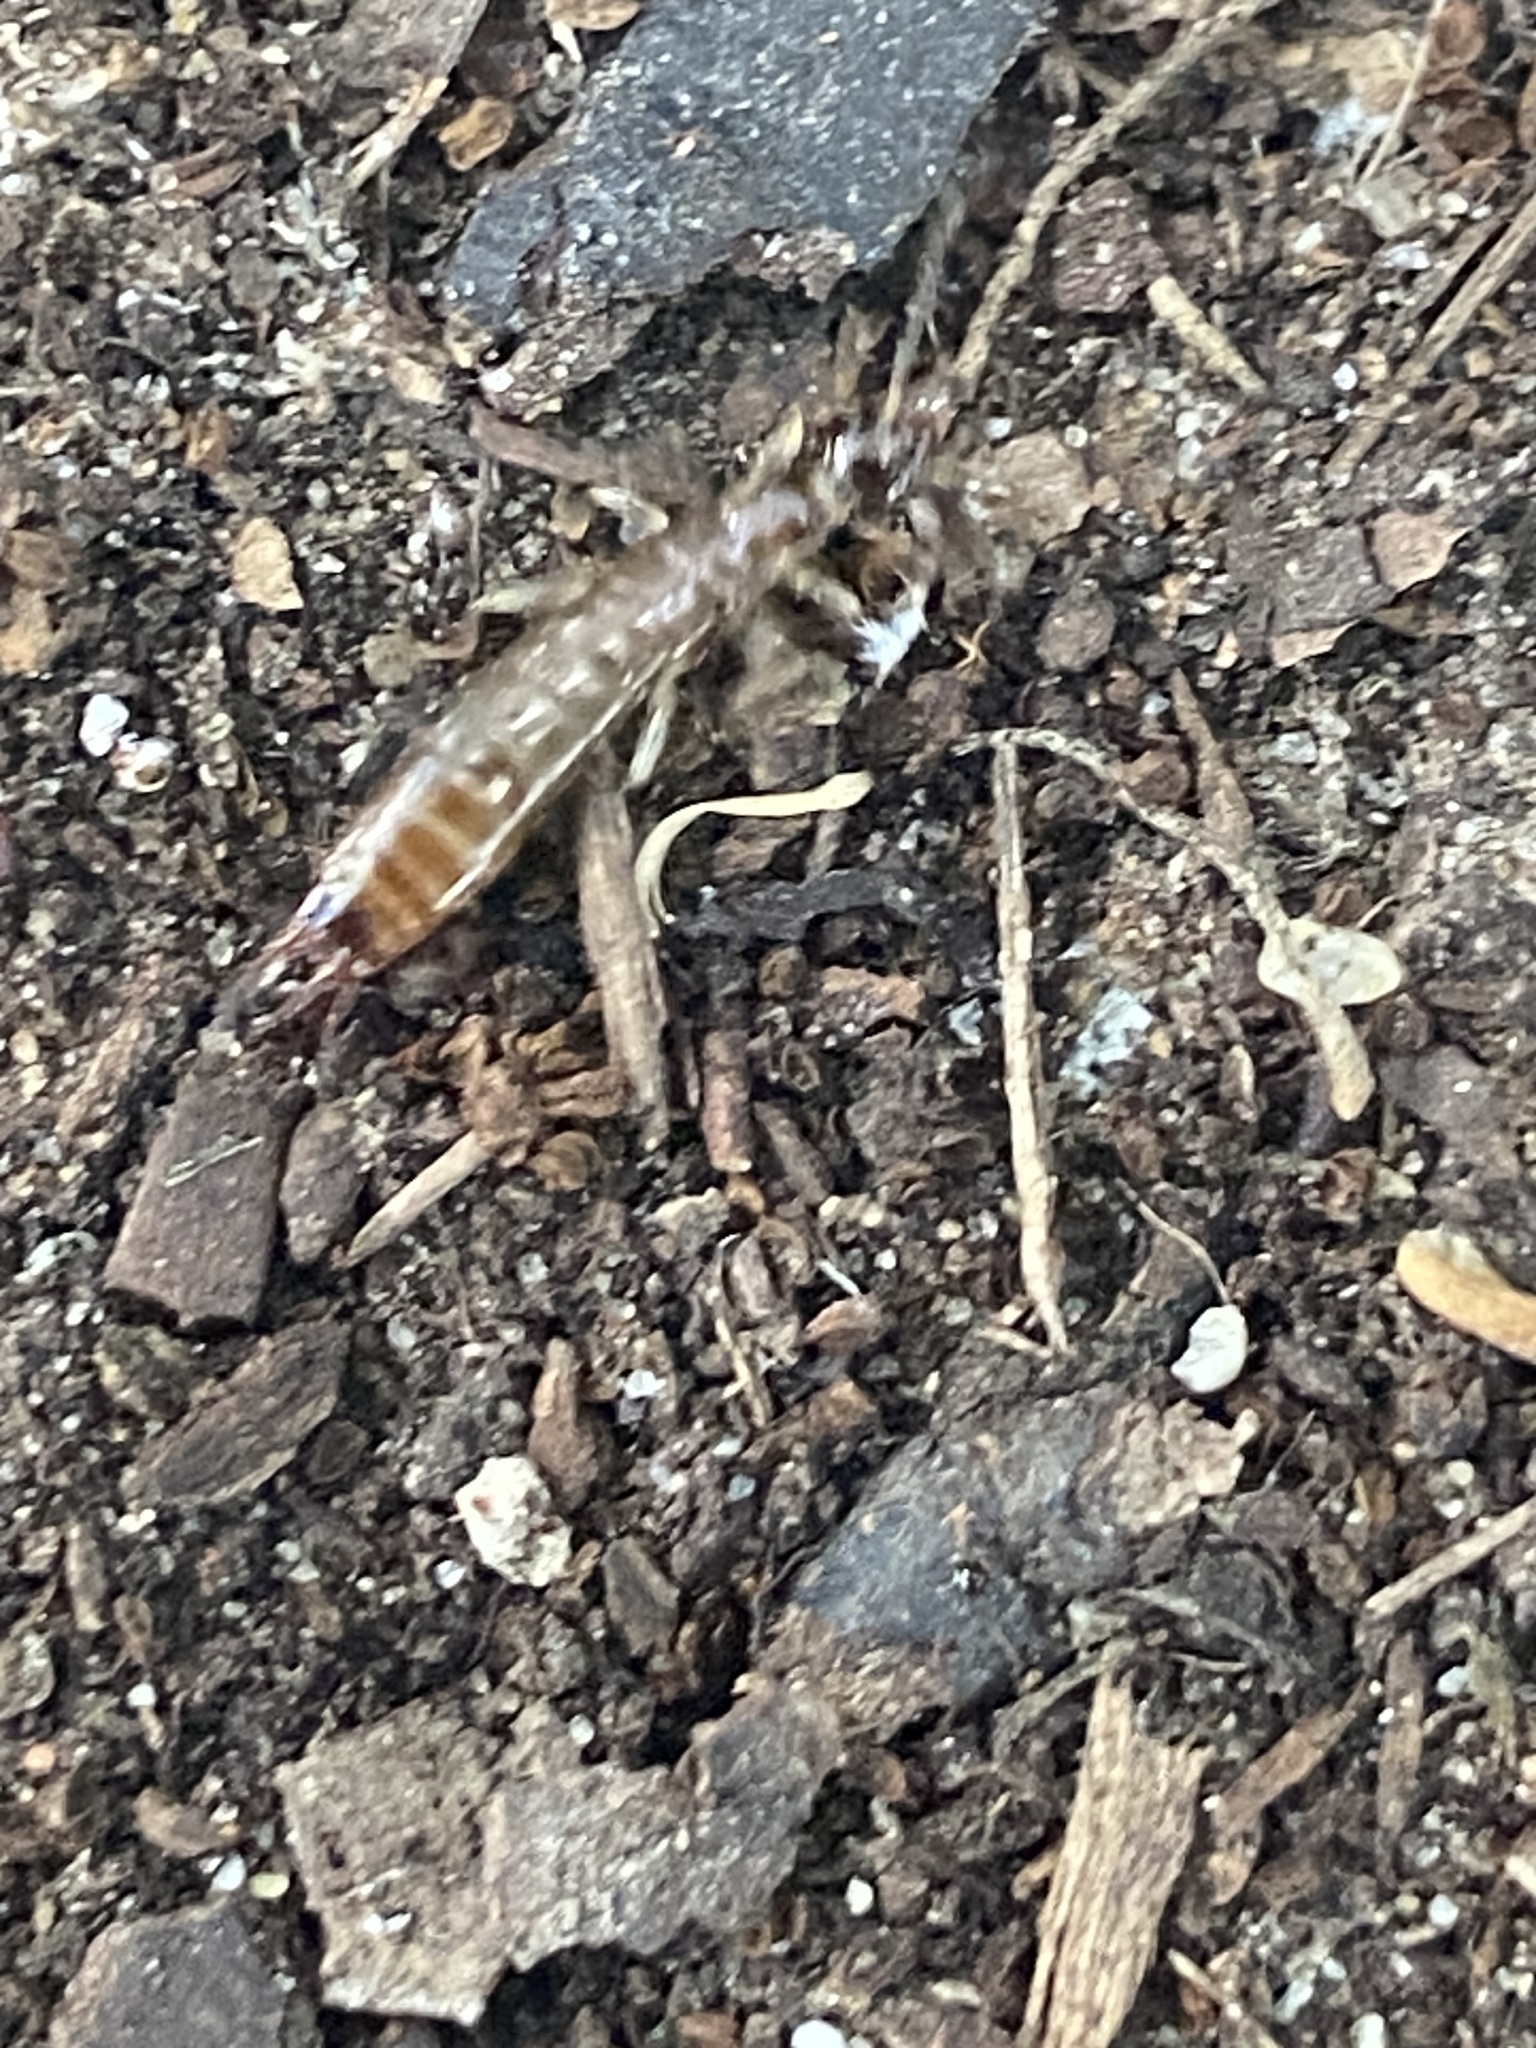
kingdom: Animalia
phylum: Arthropoda
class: Insecta
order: Dermaptera
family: Anisolabididae
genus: Euborellia
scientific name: Euborellia annulipes
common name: Ringlegged earwig
